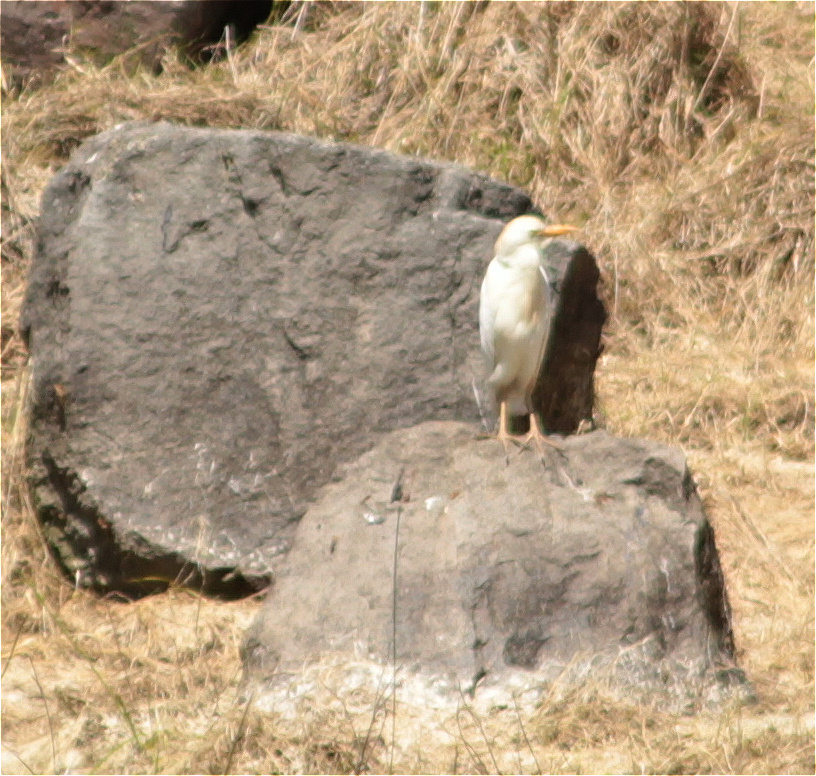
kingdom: Animalia
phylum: Chordata
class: Aves
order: Pelecaniformes
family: Ardeidae
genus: Bubulcus
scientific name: Bubulcus ibis
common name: Cattle egret
